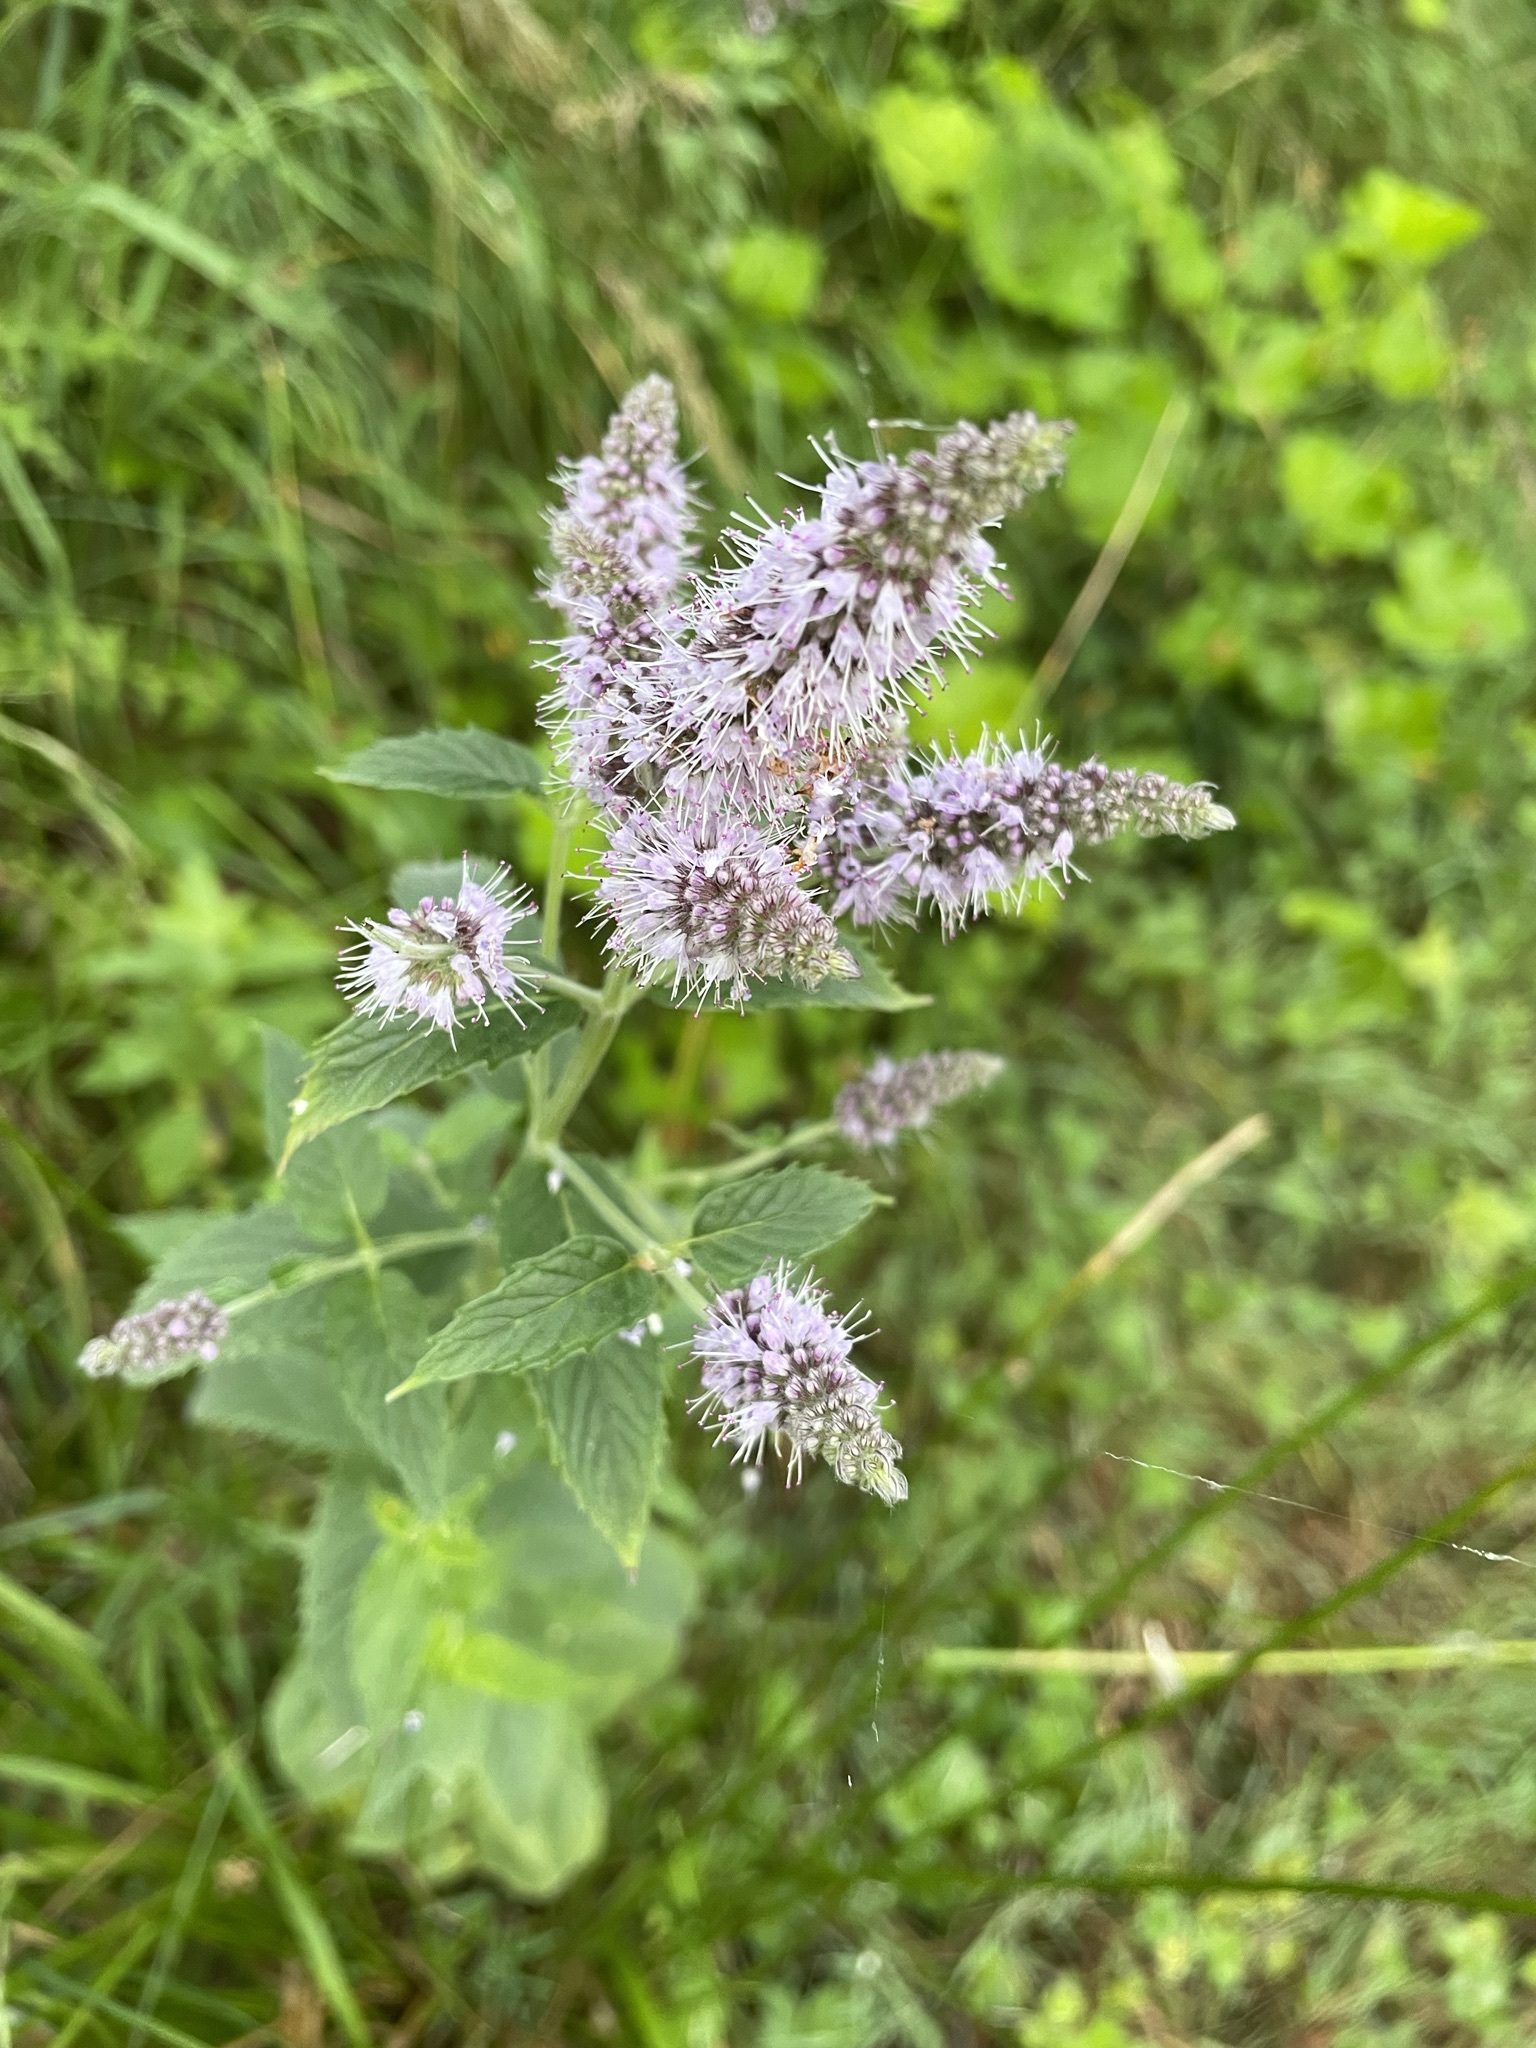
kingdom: Plantae
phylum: Tracheophyta
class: Magnoliopsida
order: Lamiales
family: Lamiaceae
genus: Mentha
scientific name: Mentha longifolia
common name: Horse mint
